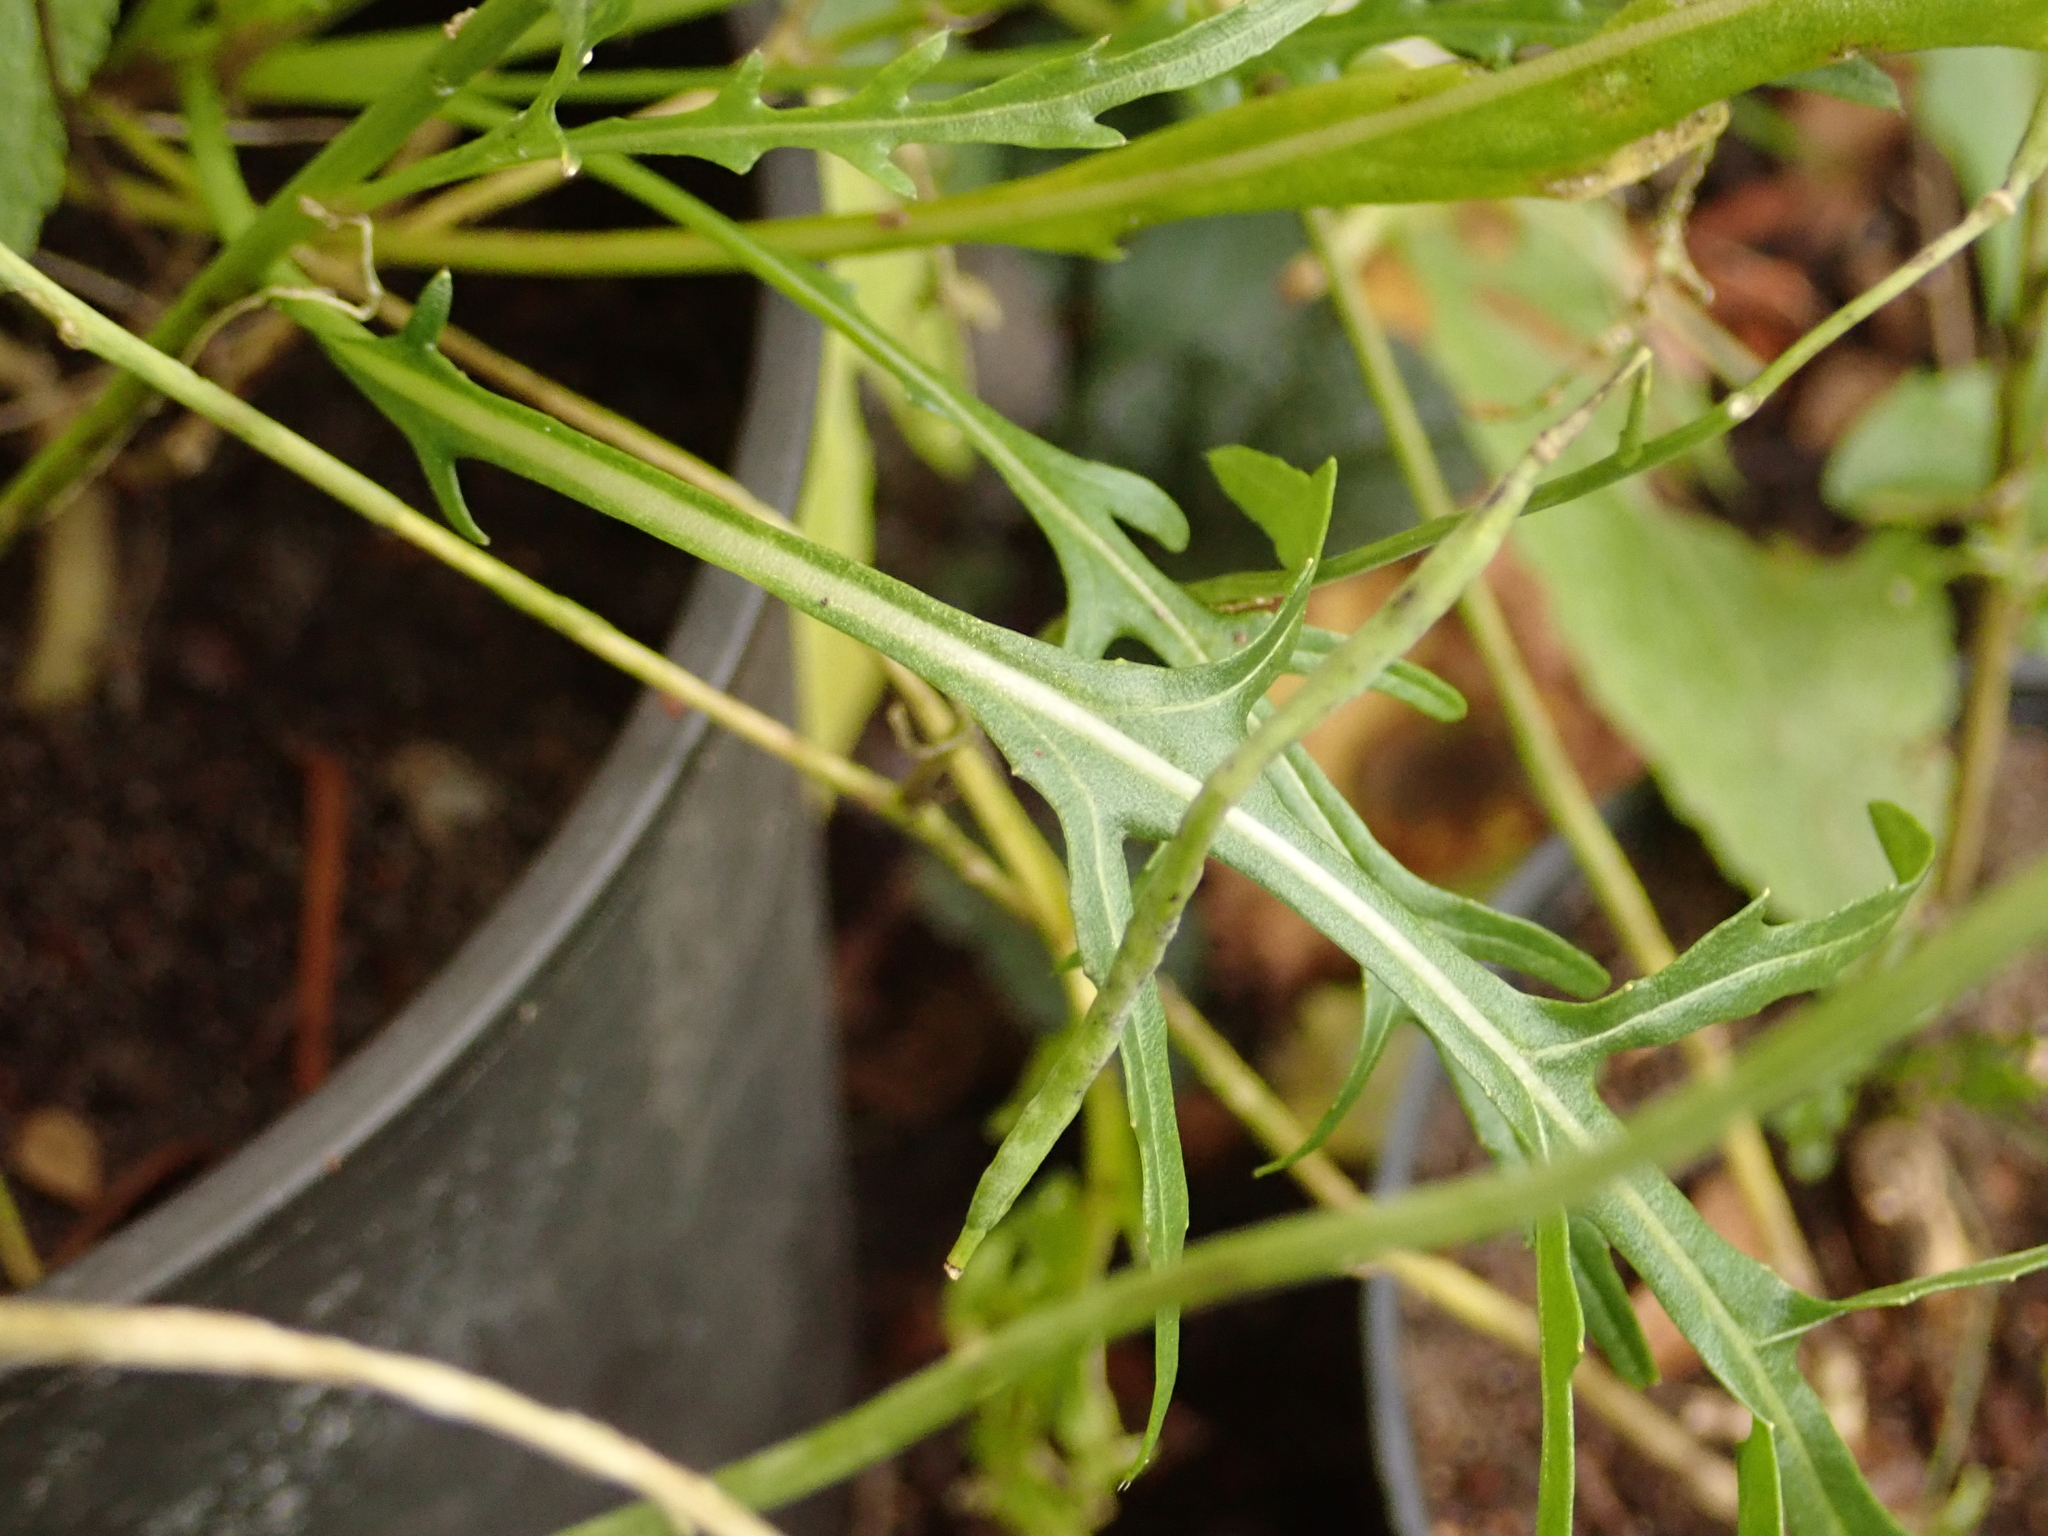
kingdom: Plantae
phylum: Tracheophyta
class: Magnoliopsida
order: Brassicales
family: Brassicaceae
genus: Diplotaxis
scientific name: Diplotaxis tenuifolia
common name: Perennial wall-rocket
